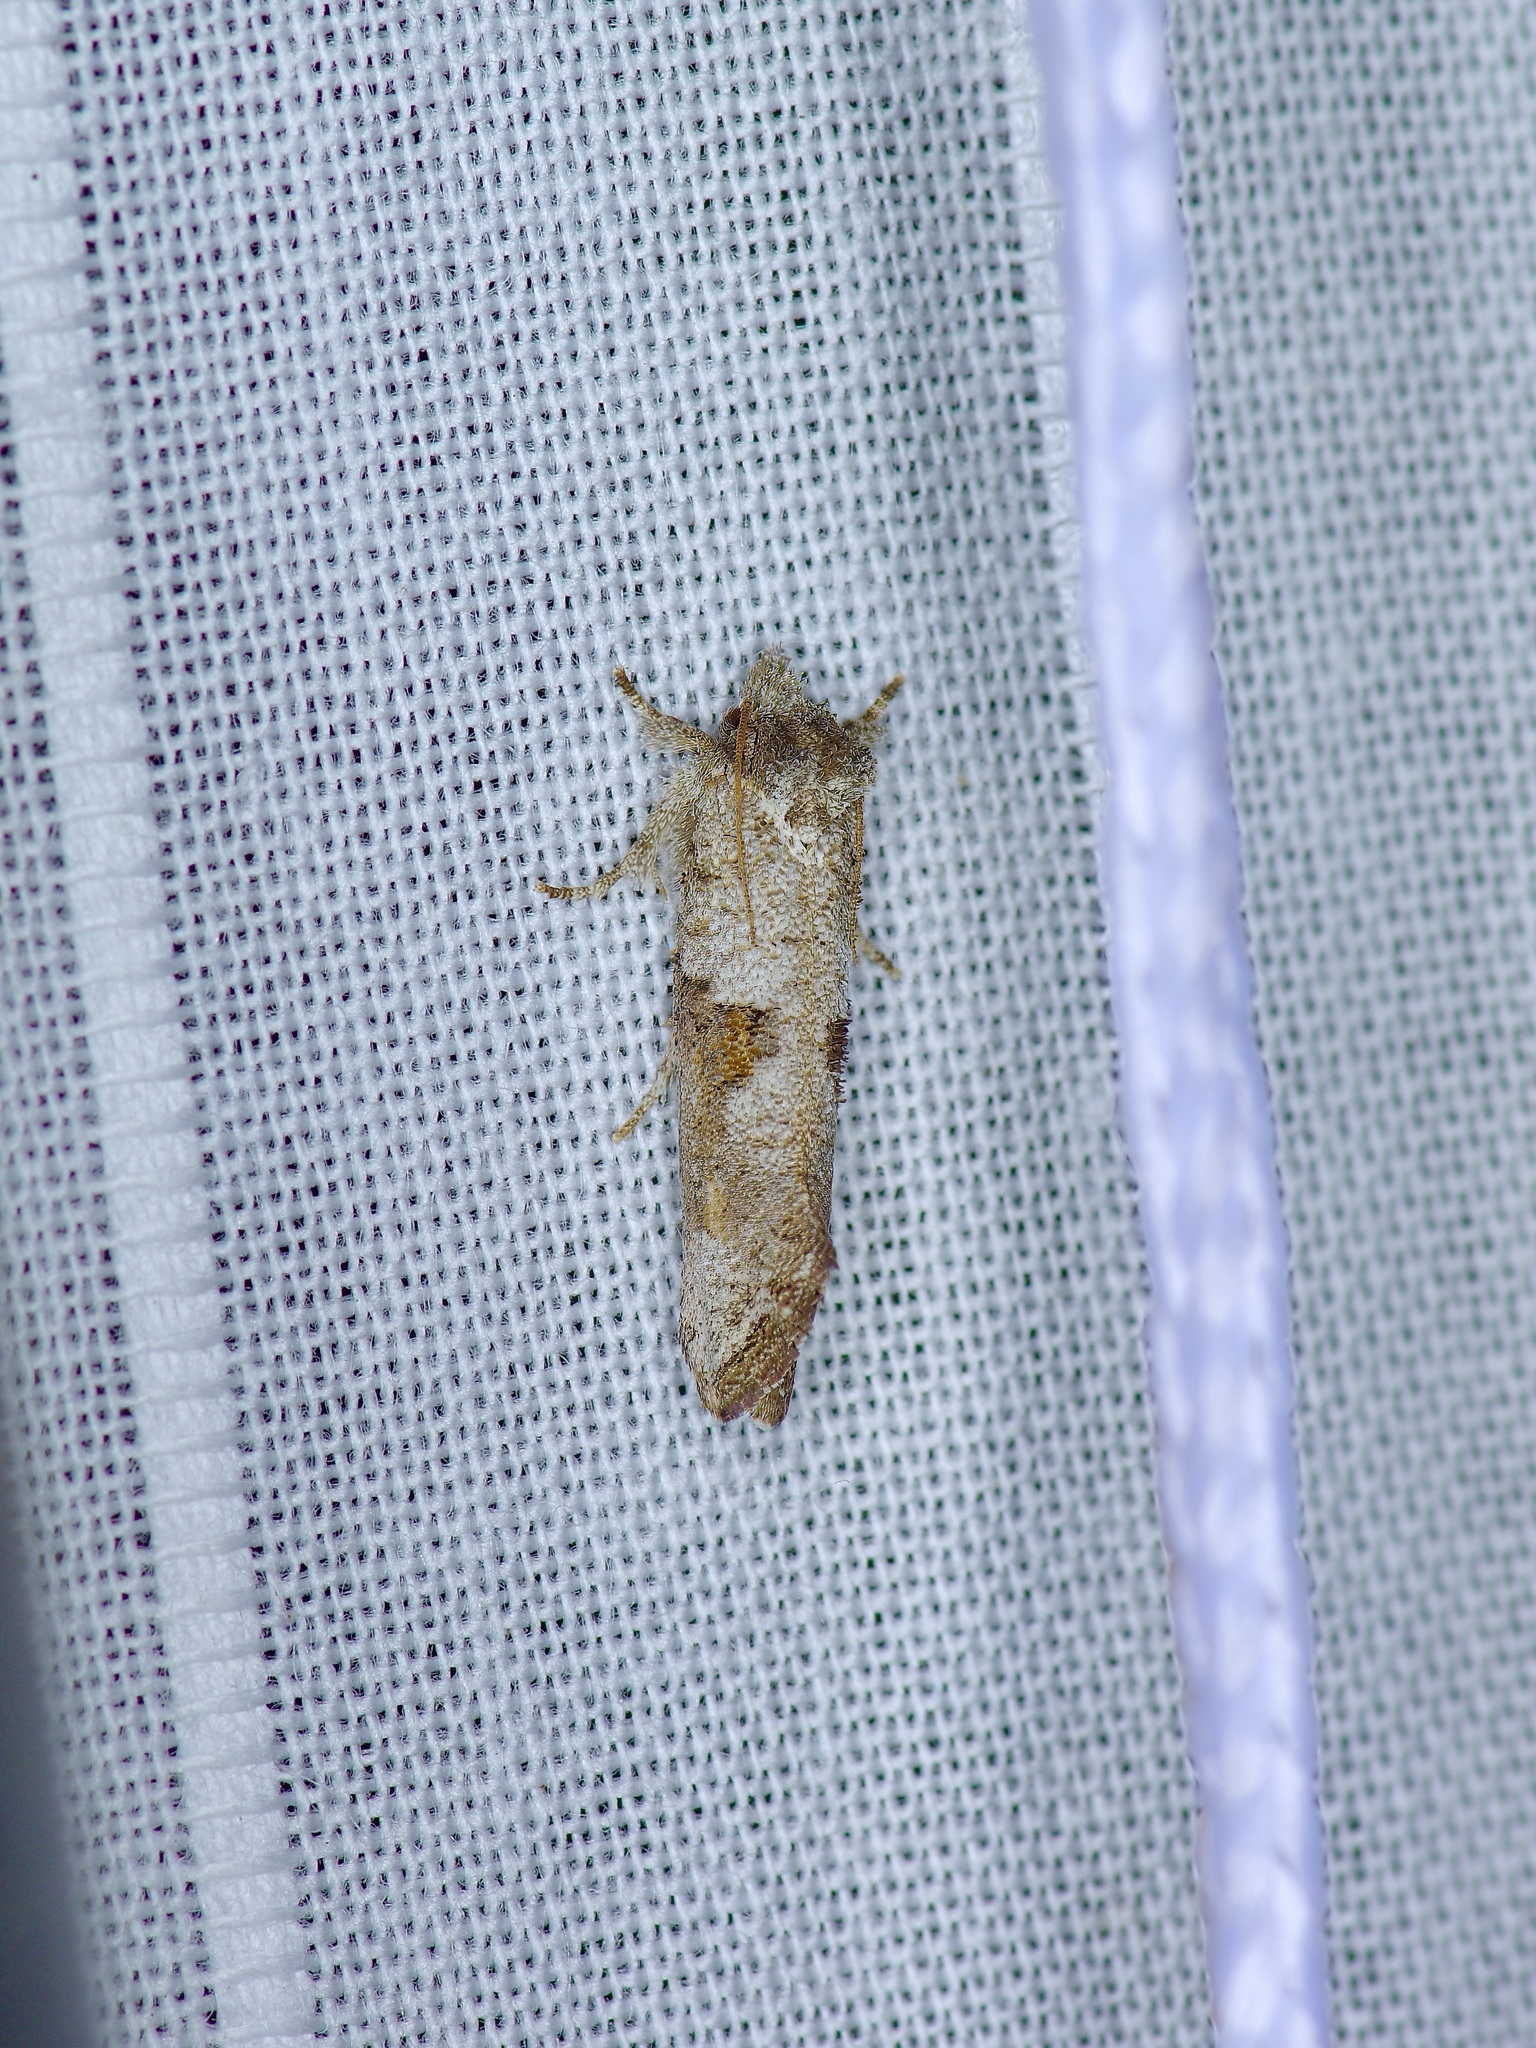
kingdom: Animalia
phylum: Arthropoda
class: Insecta
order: Lepidoptera
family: Tineidae
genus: Acrolophus
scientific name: Acrolophus piger
